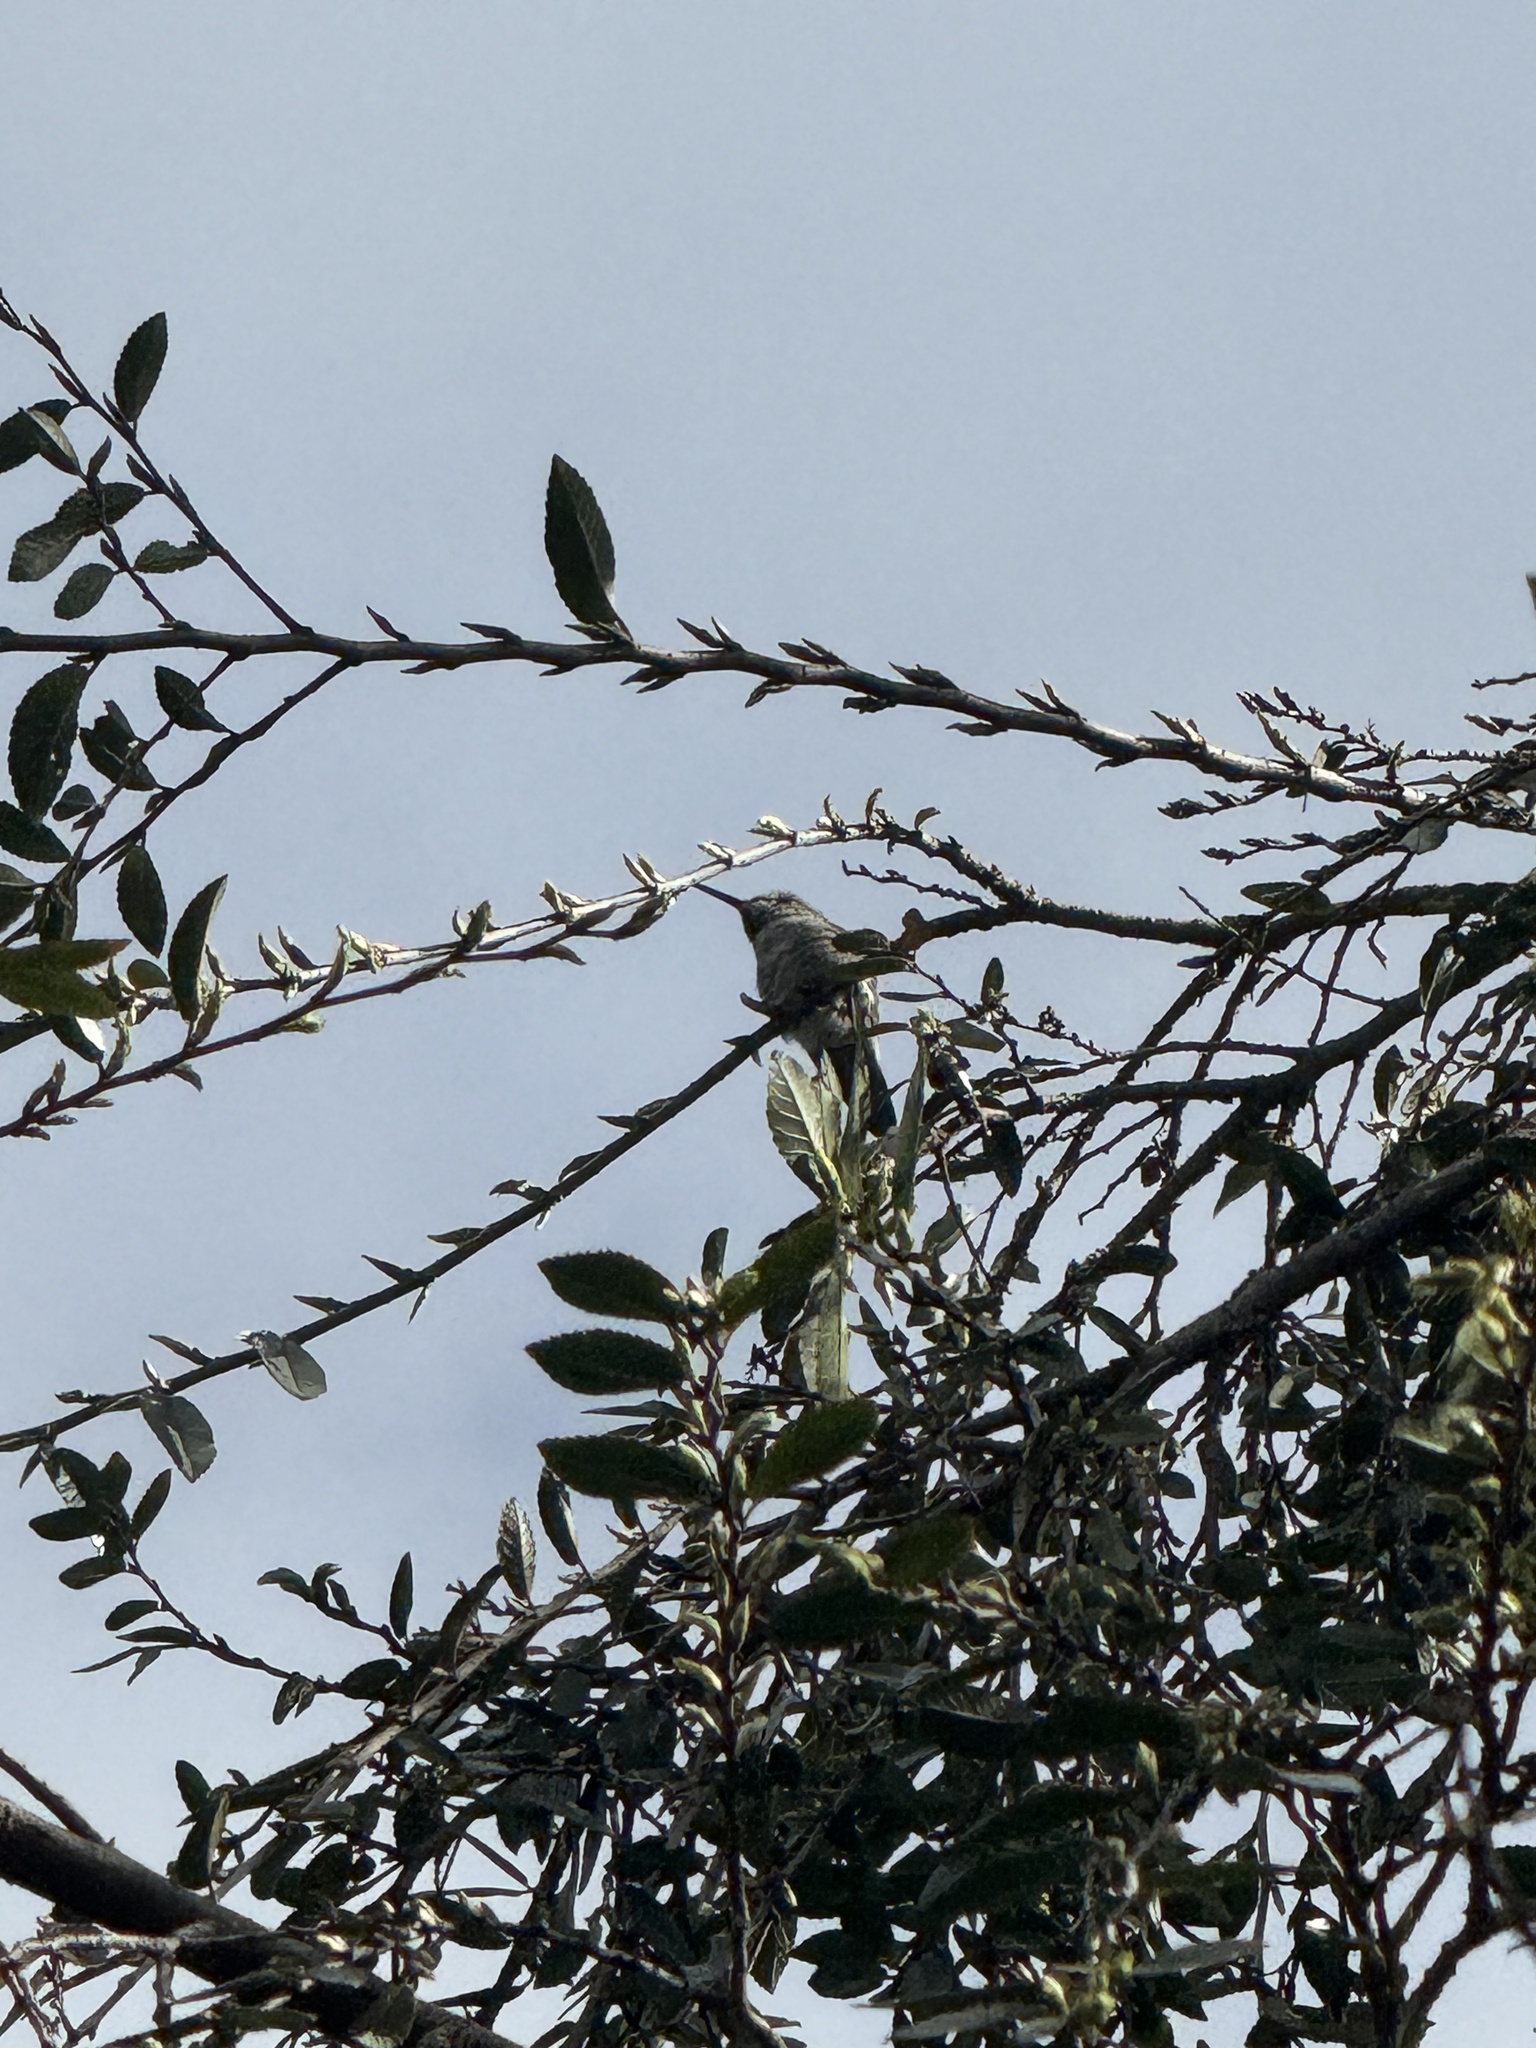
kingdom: Animalia
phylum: Chordata
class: Aves
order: Apodiformes
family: Trochilidae
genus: Calypte
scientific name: Calypte anna
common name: Anna's hummingbird
